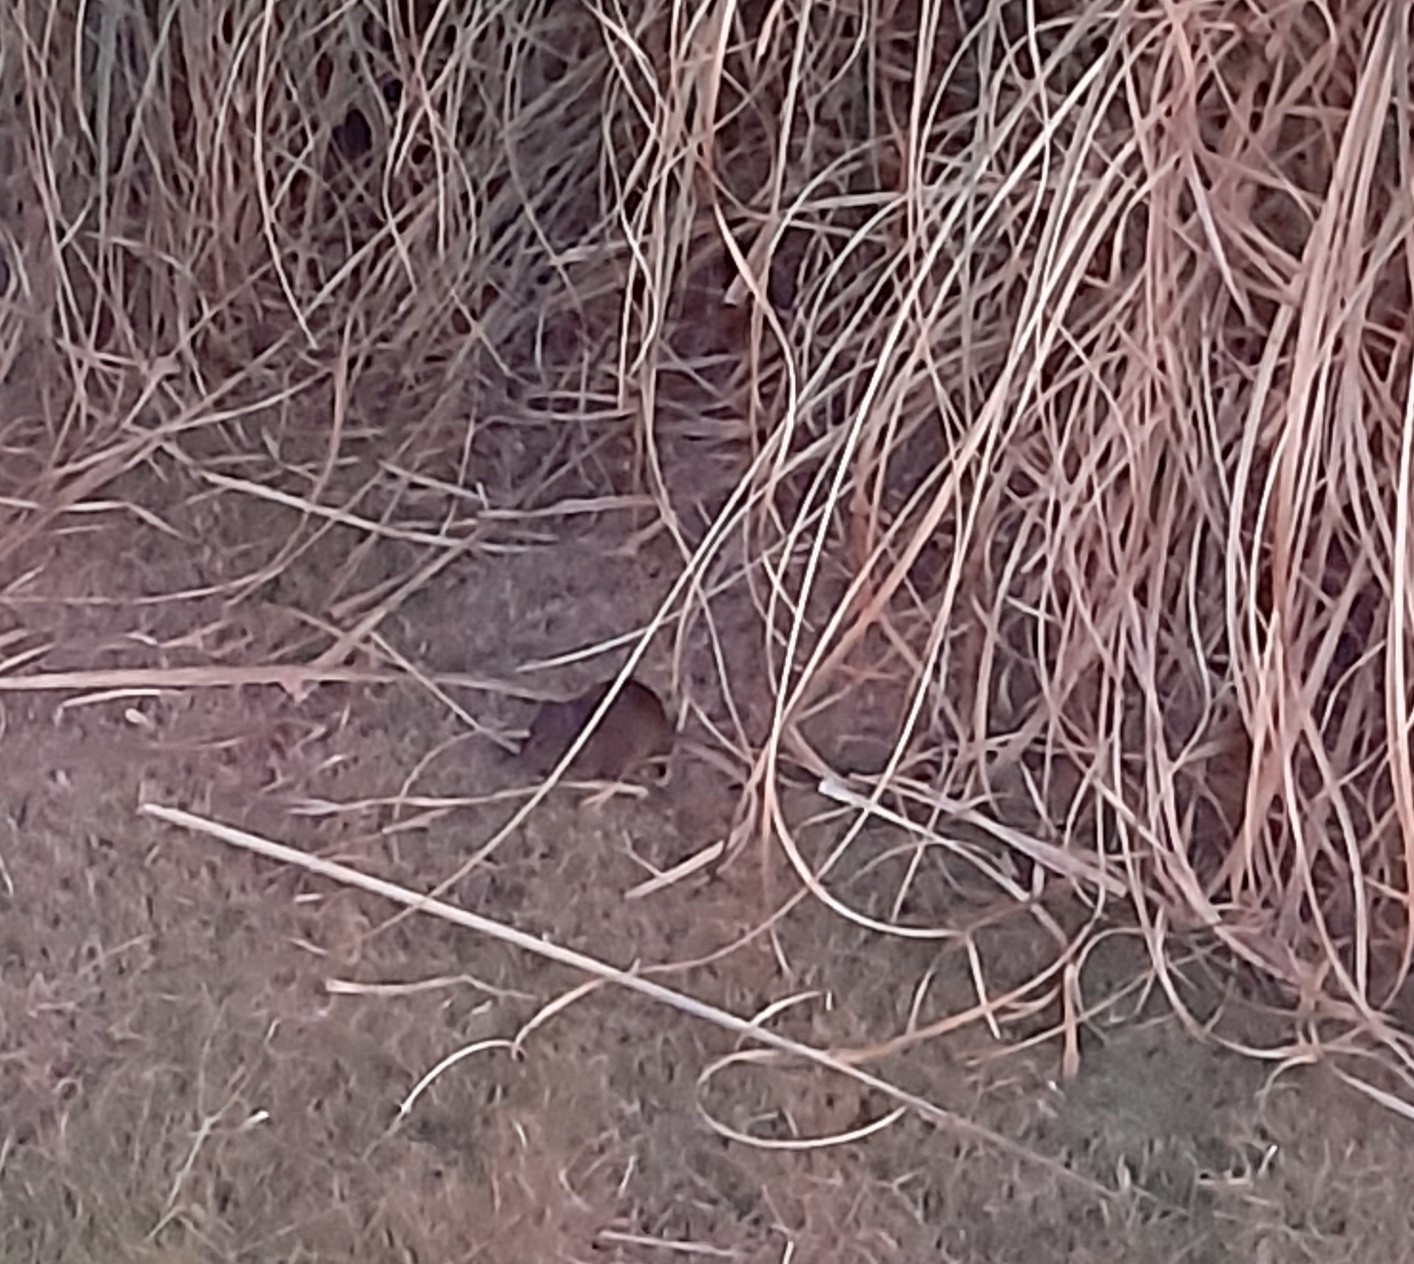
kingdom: Animalia
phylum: Chordata
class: Mammalia
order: Rodentia
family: Caviidae
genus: Cavia
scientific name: Cavia aperea
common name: Brazilian guinea pig
